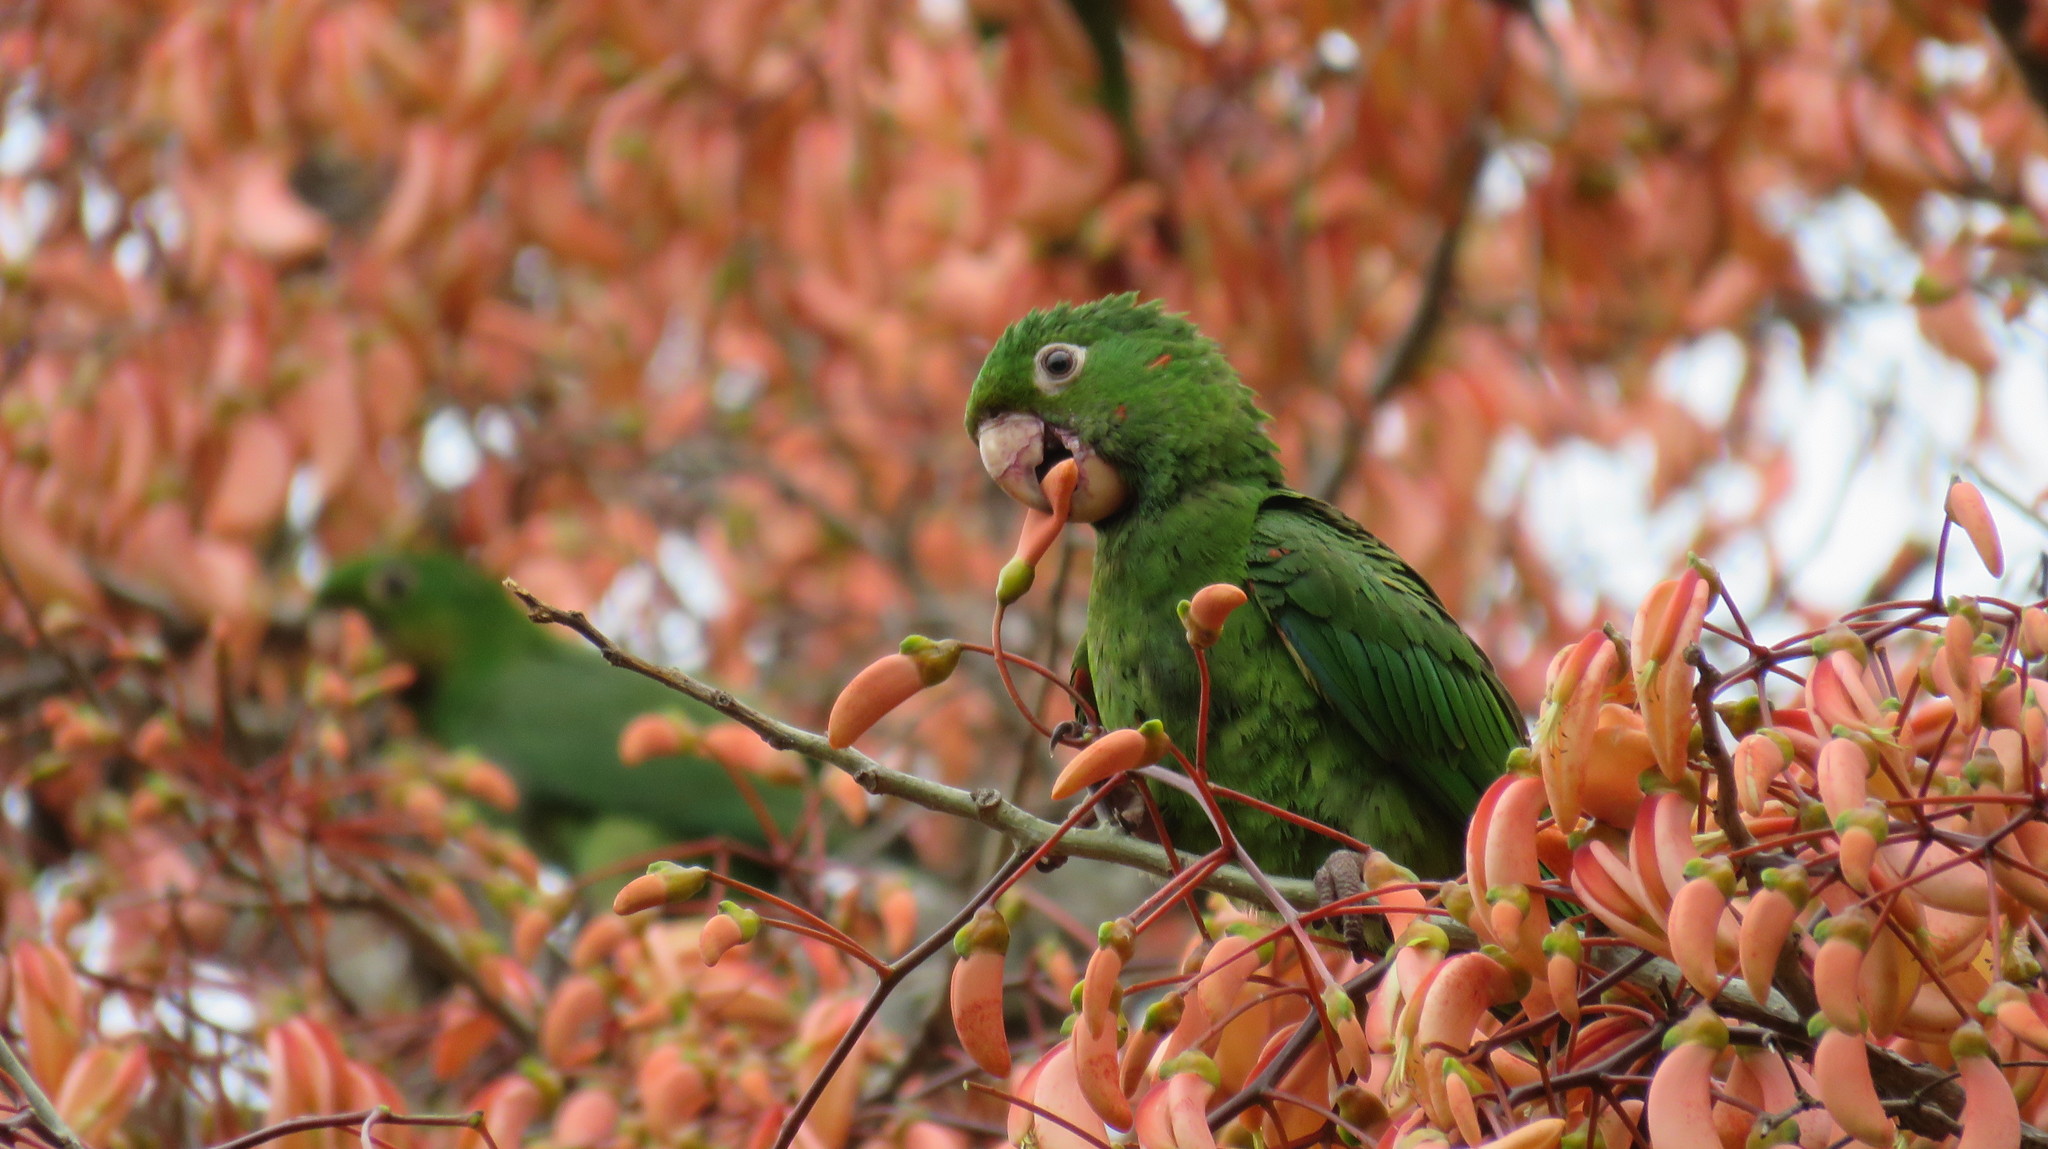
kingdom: Animalia
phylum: Chordata
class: Aves
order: Psittaciformes
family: Psittacidae
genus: Aratinga
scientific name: Aratinga leucophthalma
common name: White-eyed parakeet
